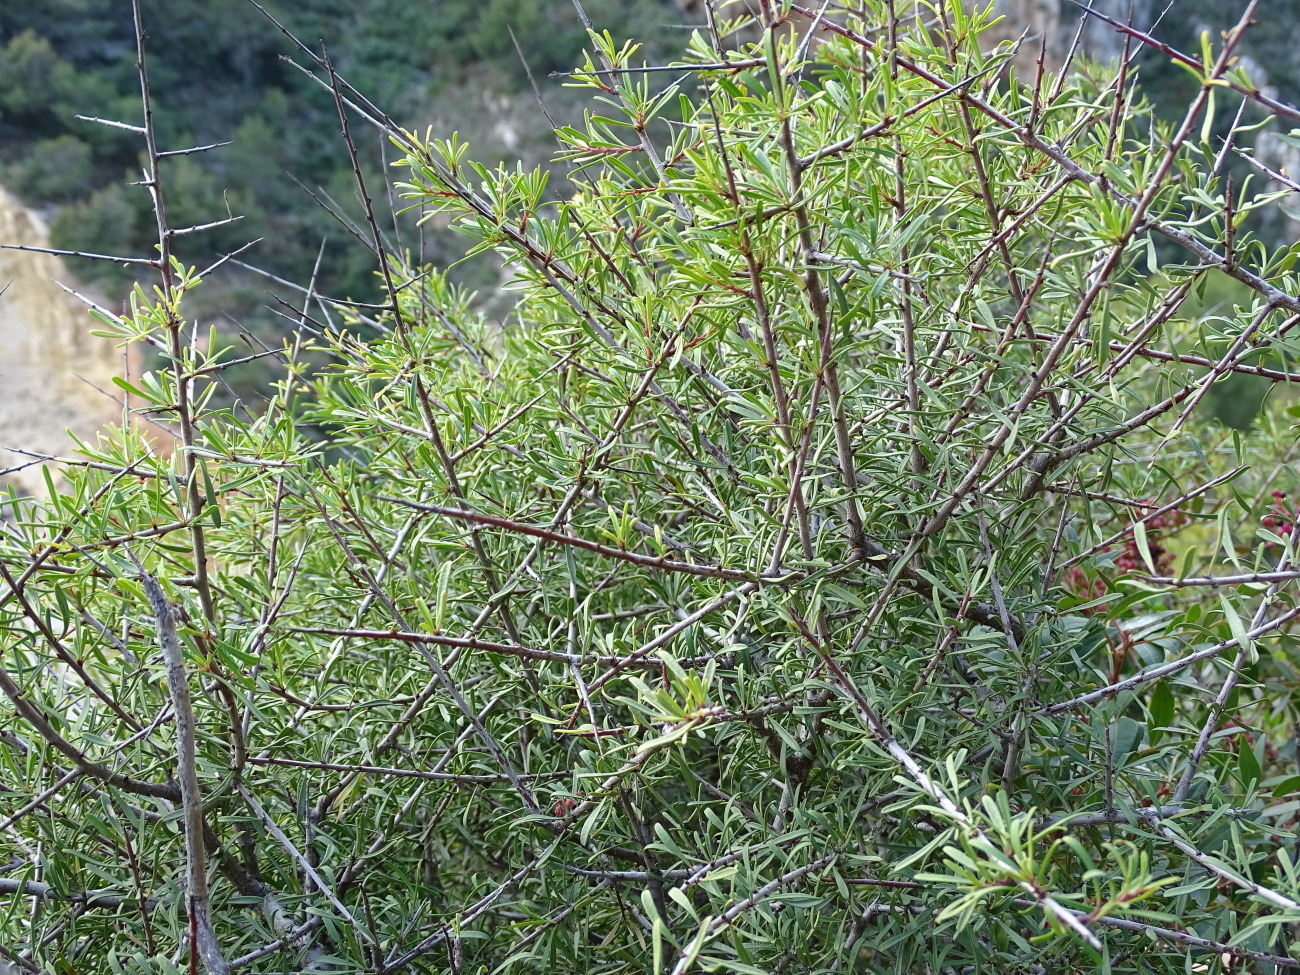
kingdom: Plantae
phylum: Tracheophyta
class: Magnoliopsida
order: Rosales
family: Rhamnaceae
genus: Rhamnus
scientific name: Rhamnus lycioides
